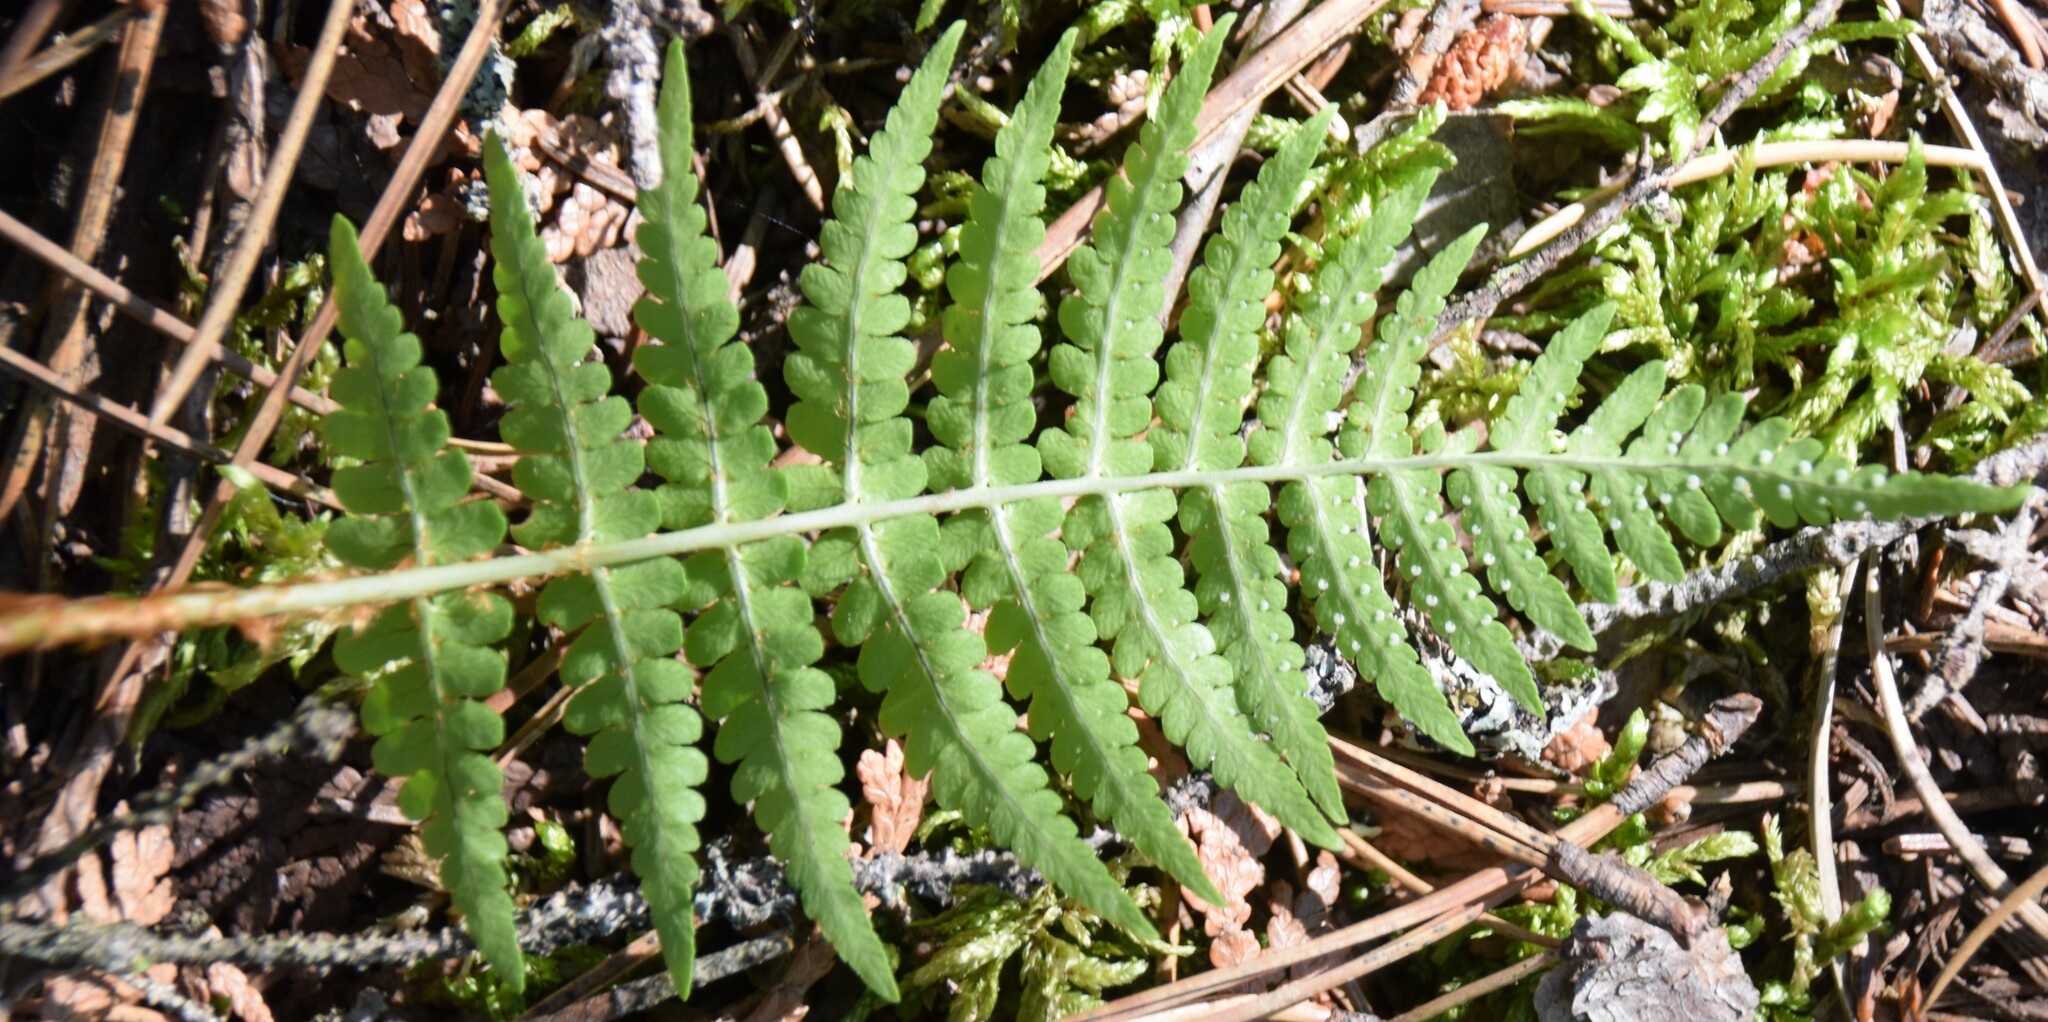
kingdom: Plantae
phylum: Tracheophyta
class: Polypodiopsida
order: Polypodiales
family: Dryopteridaceae
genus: Dryopteris
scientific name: Dryopteris marginalis
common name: Marginal wood fern
